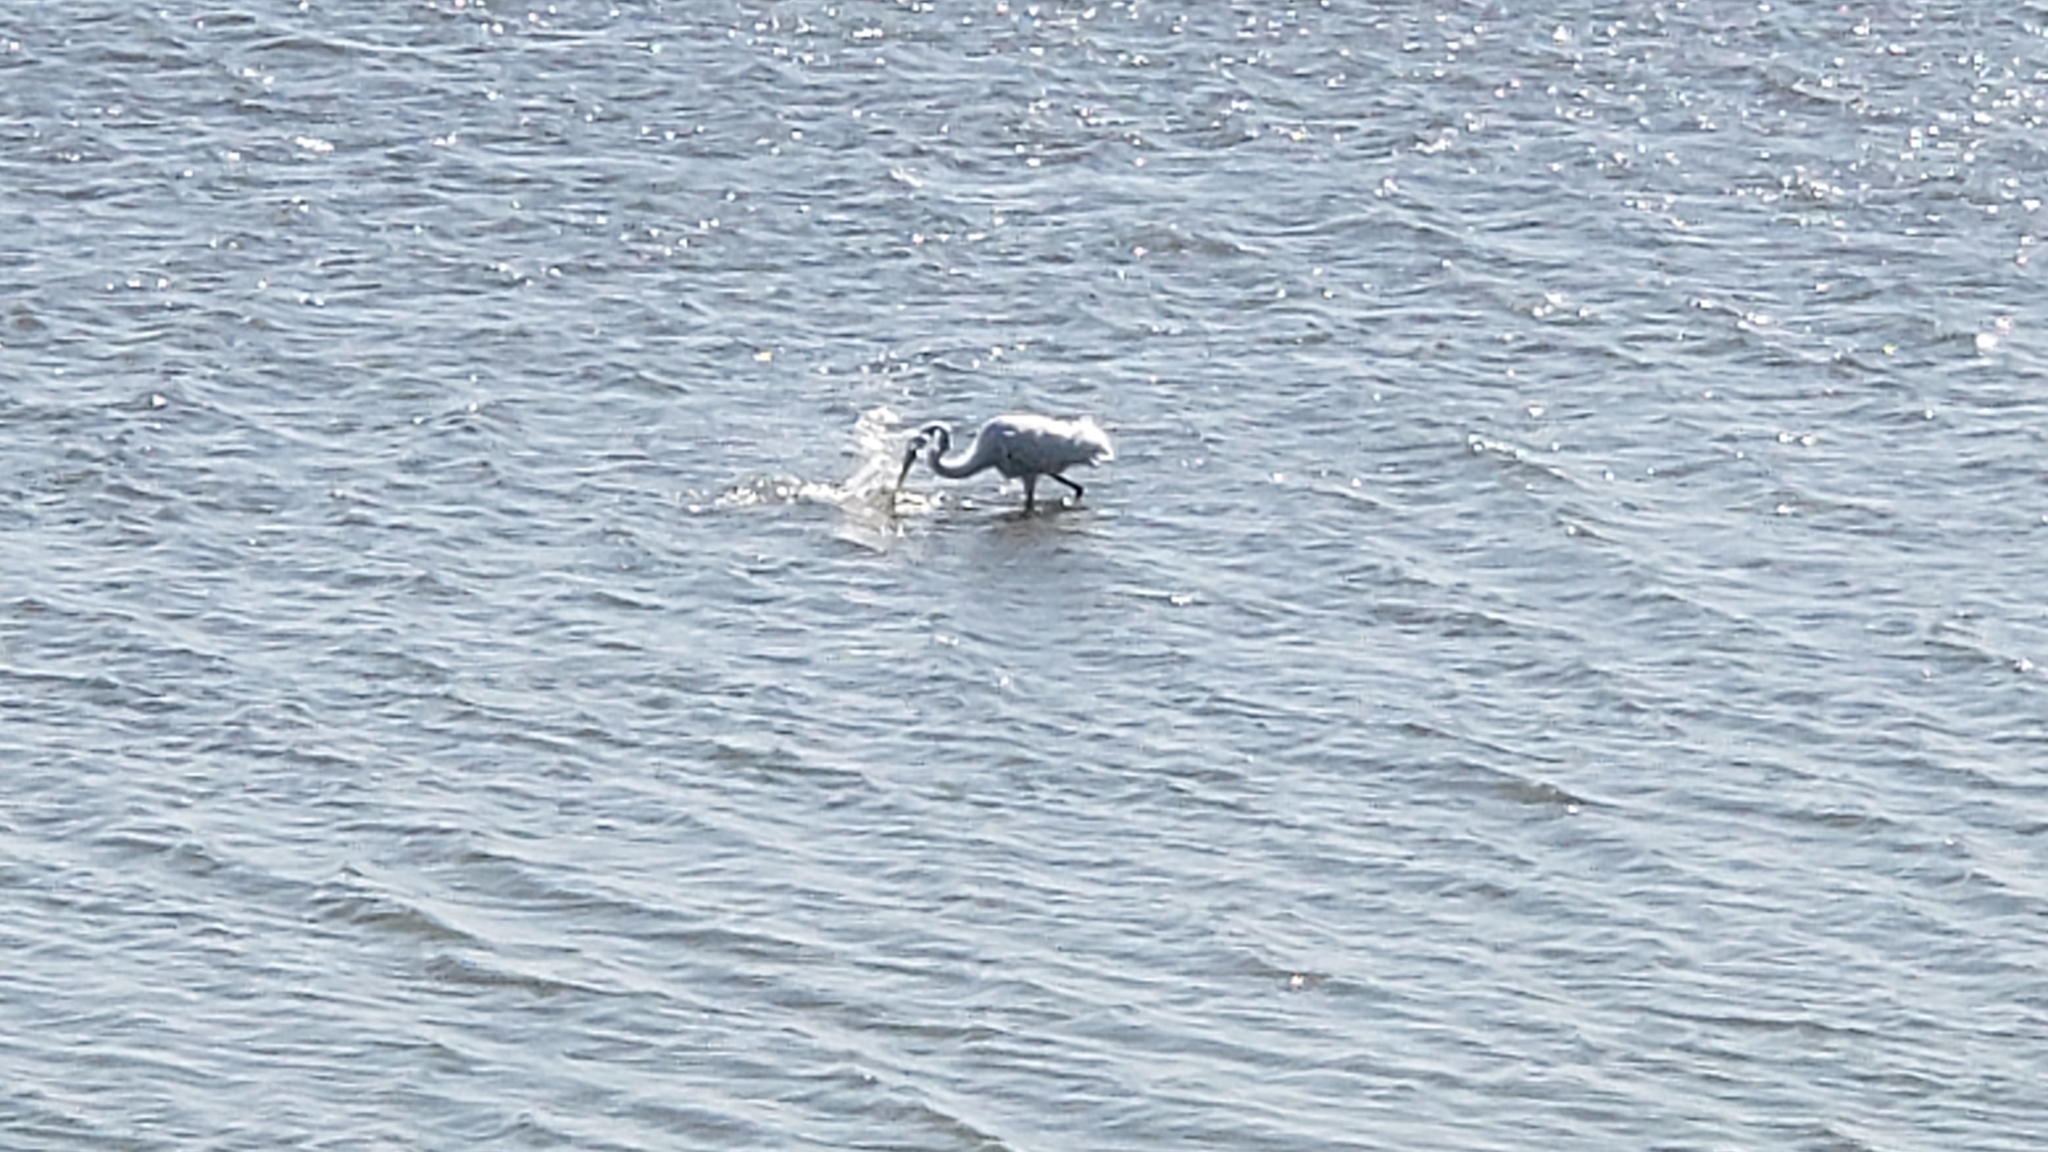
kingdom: Animalia
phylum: Chordata
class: Aves
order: Pelecaniformes
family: Ardeidae
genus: Ardea
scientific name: Ardea alba
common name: Great egret
